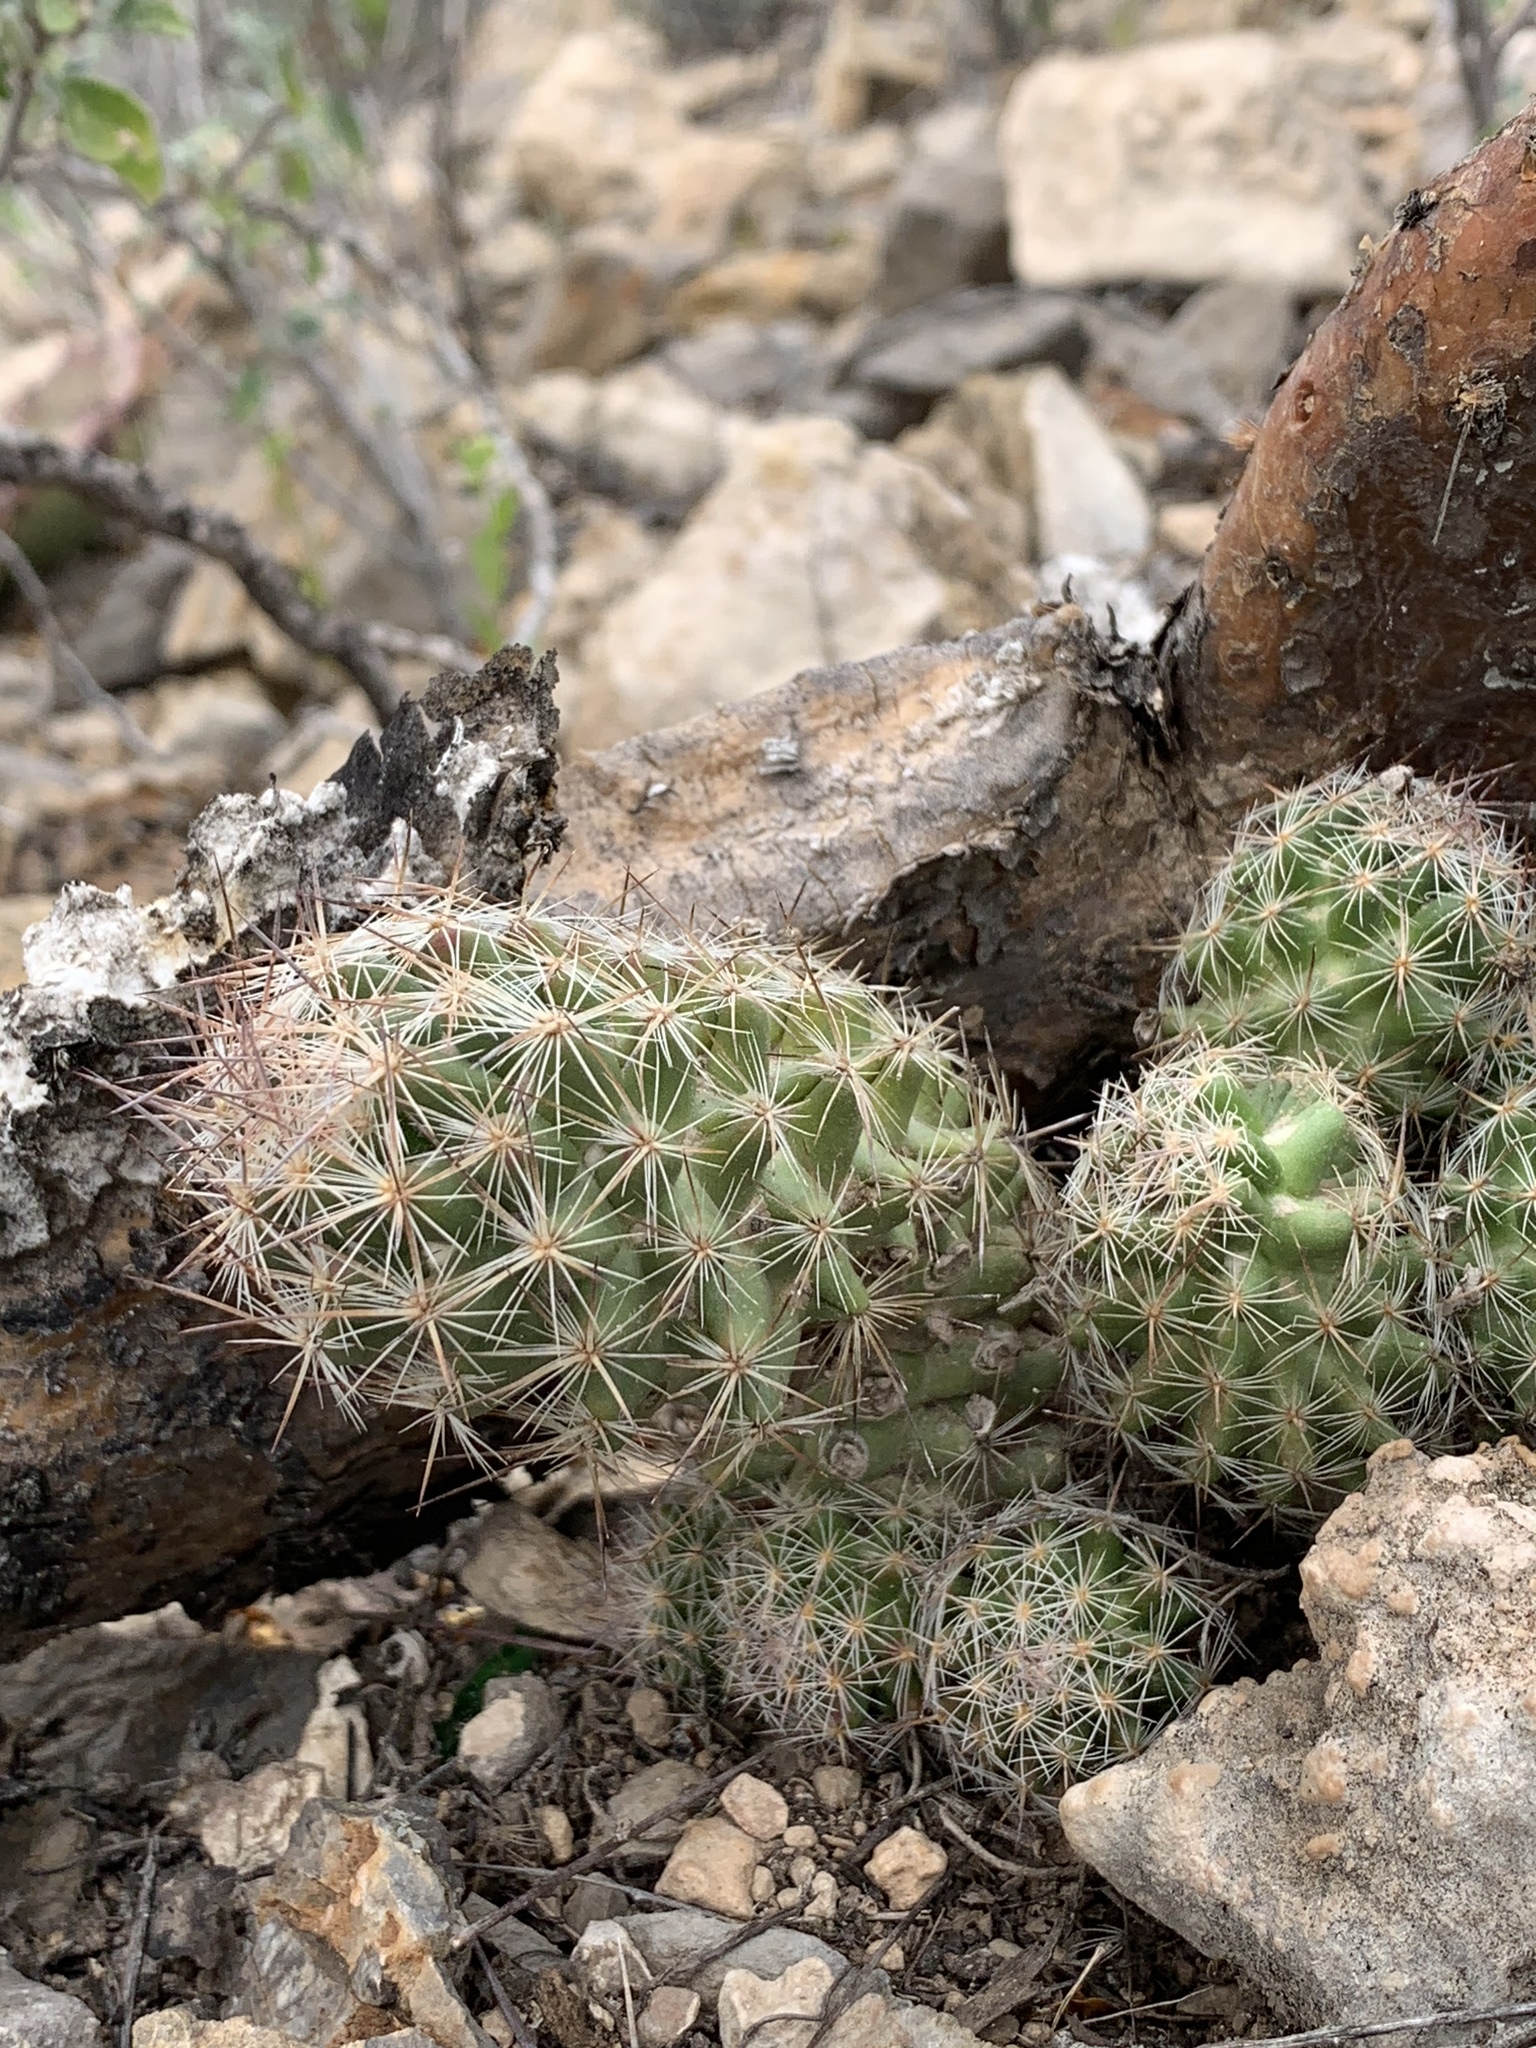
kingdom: Plantae
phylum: Tracheophyta
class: Magnoliopsida
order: Caryophyllales
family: Cactaceae
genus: Pelecyphora
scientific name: Pelecyphora tuberculosa
